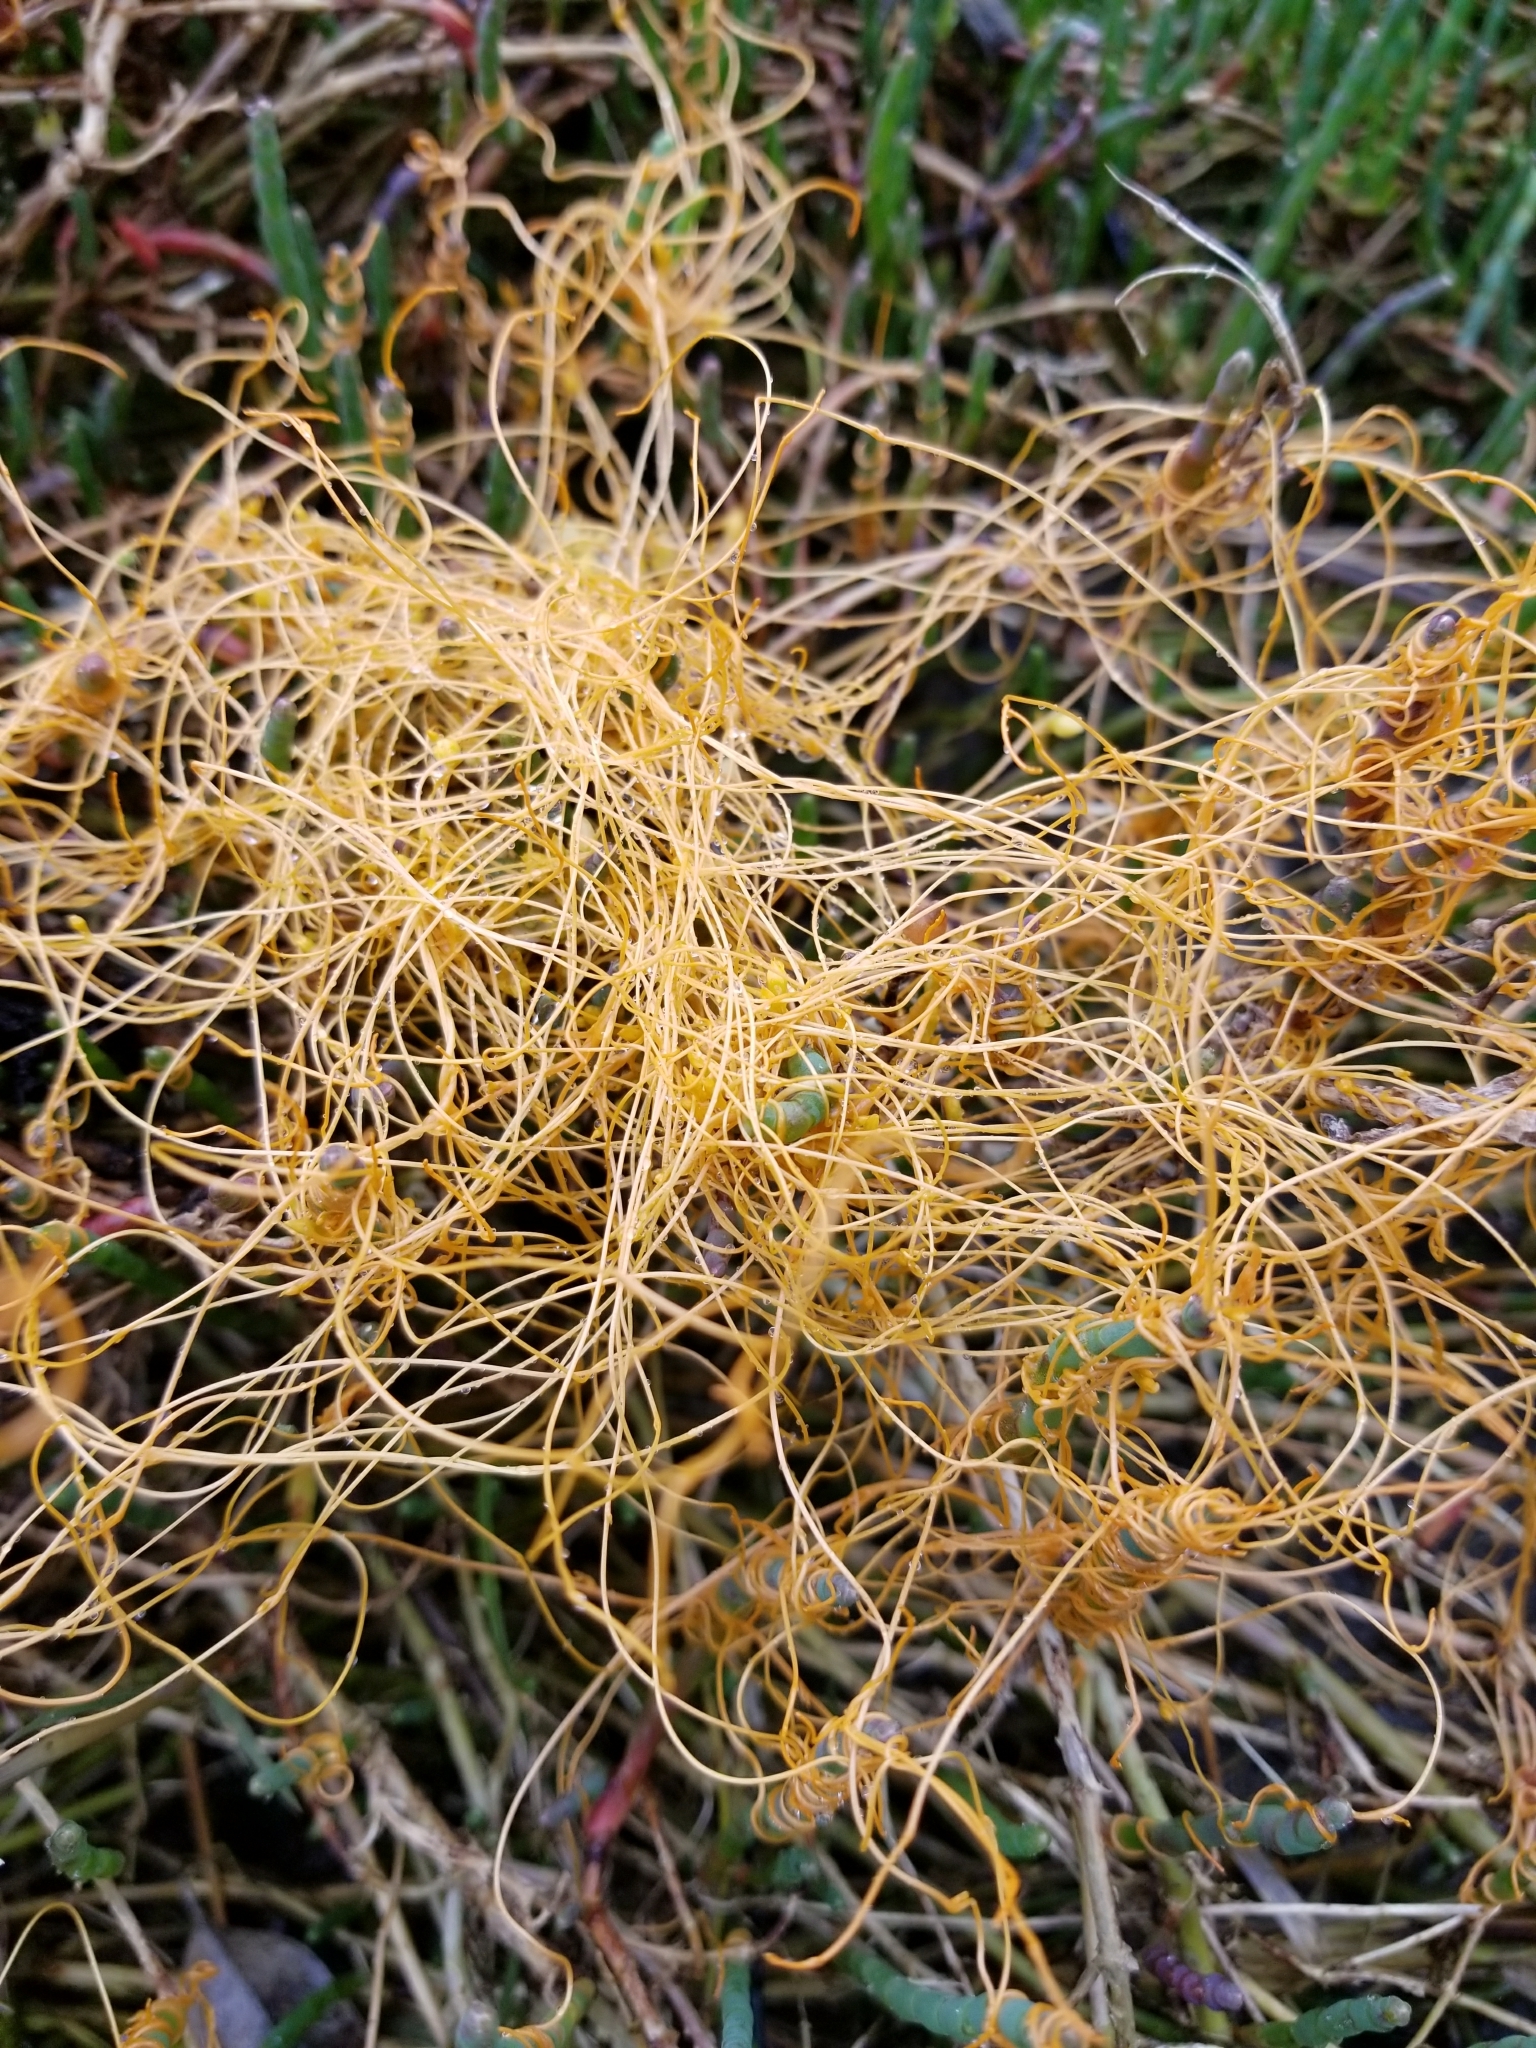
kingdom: Plantae
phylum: Tracheophyta
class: Magnoliopsida
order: Solanales
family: Convolvulaceae
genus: Cuscuta
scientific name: Cuscuta pacifica
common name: Large saltmarsh dodder
